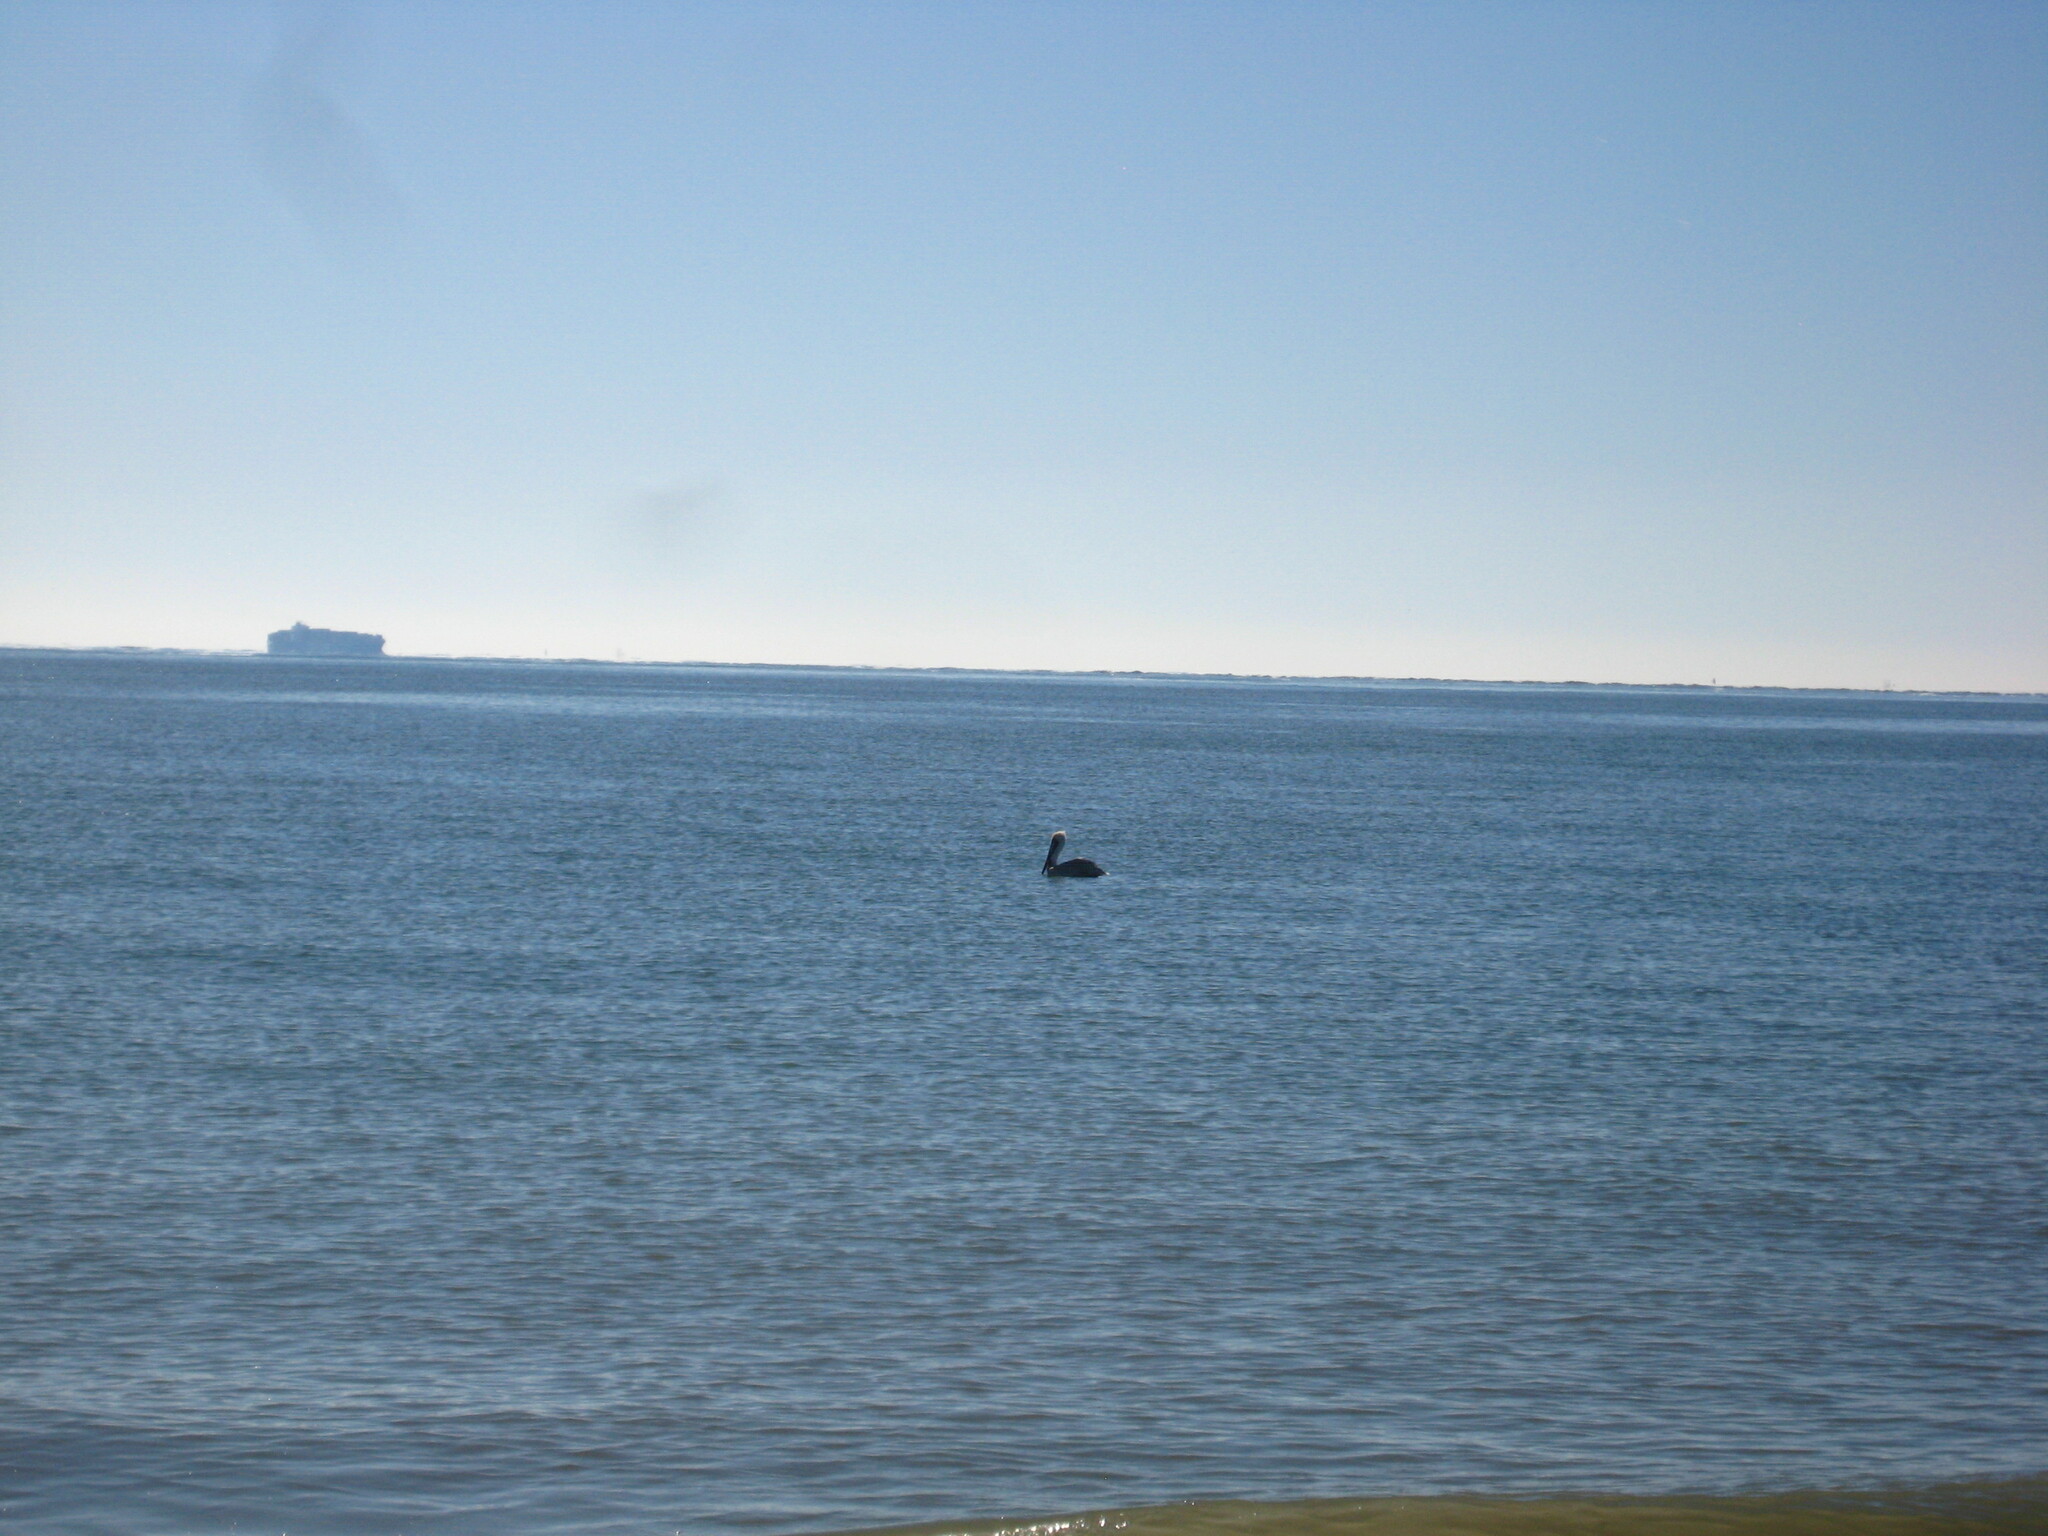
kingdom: Animalia
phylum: Chordata
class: Aves
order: Pelecaniformes
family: Pelecanidae
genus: Pelecanus
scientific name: Pelecanus occidentalis
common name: Brown pelican
